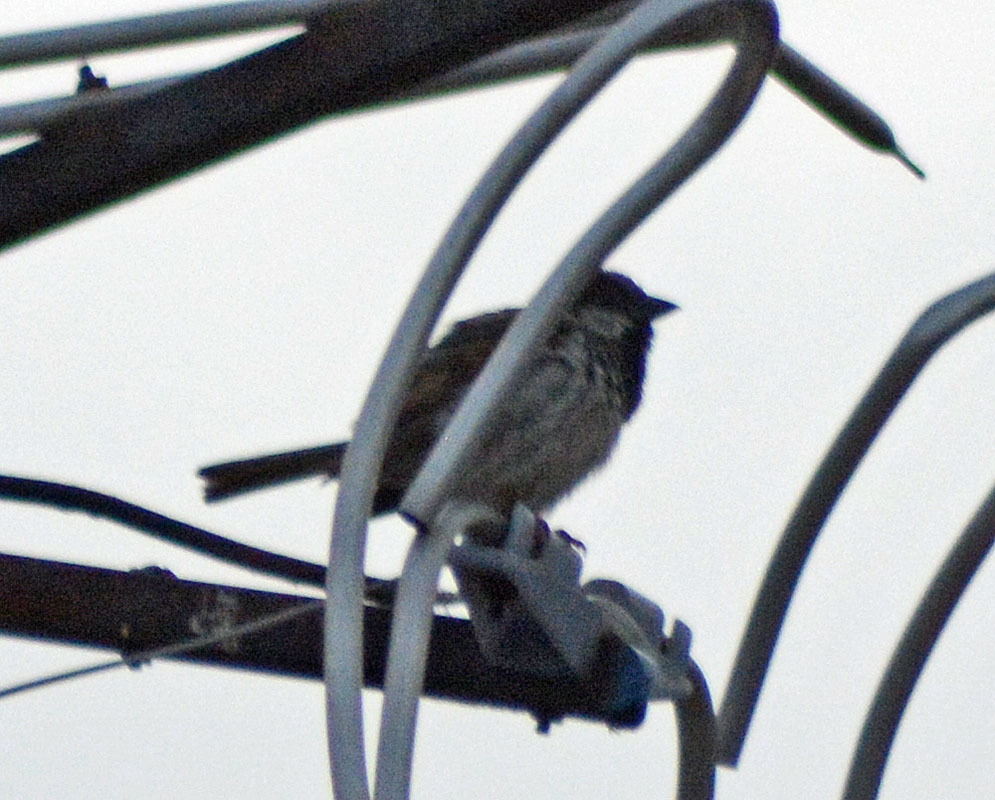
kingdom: Animalia
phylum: Chordata
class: Aves
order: Passeriformes
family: Passeridae
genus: Passer
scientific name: Passer domesticus
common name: House sparrow
